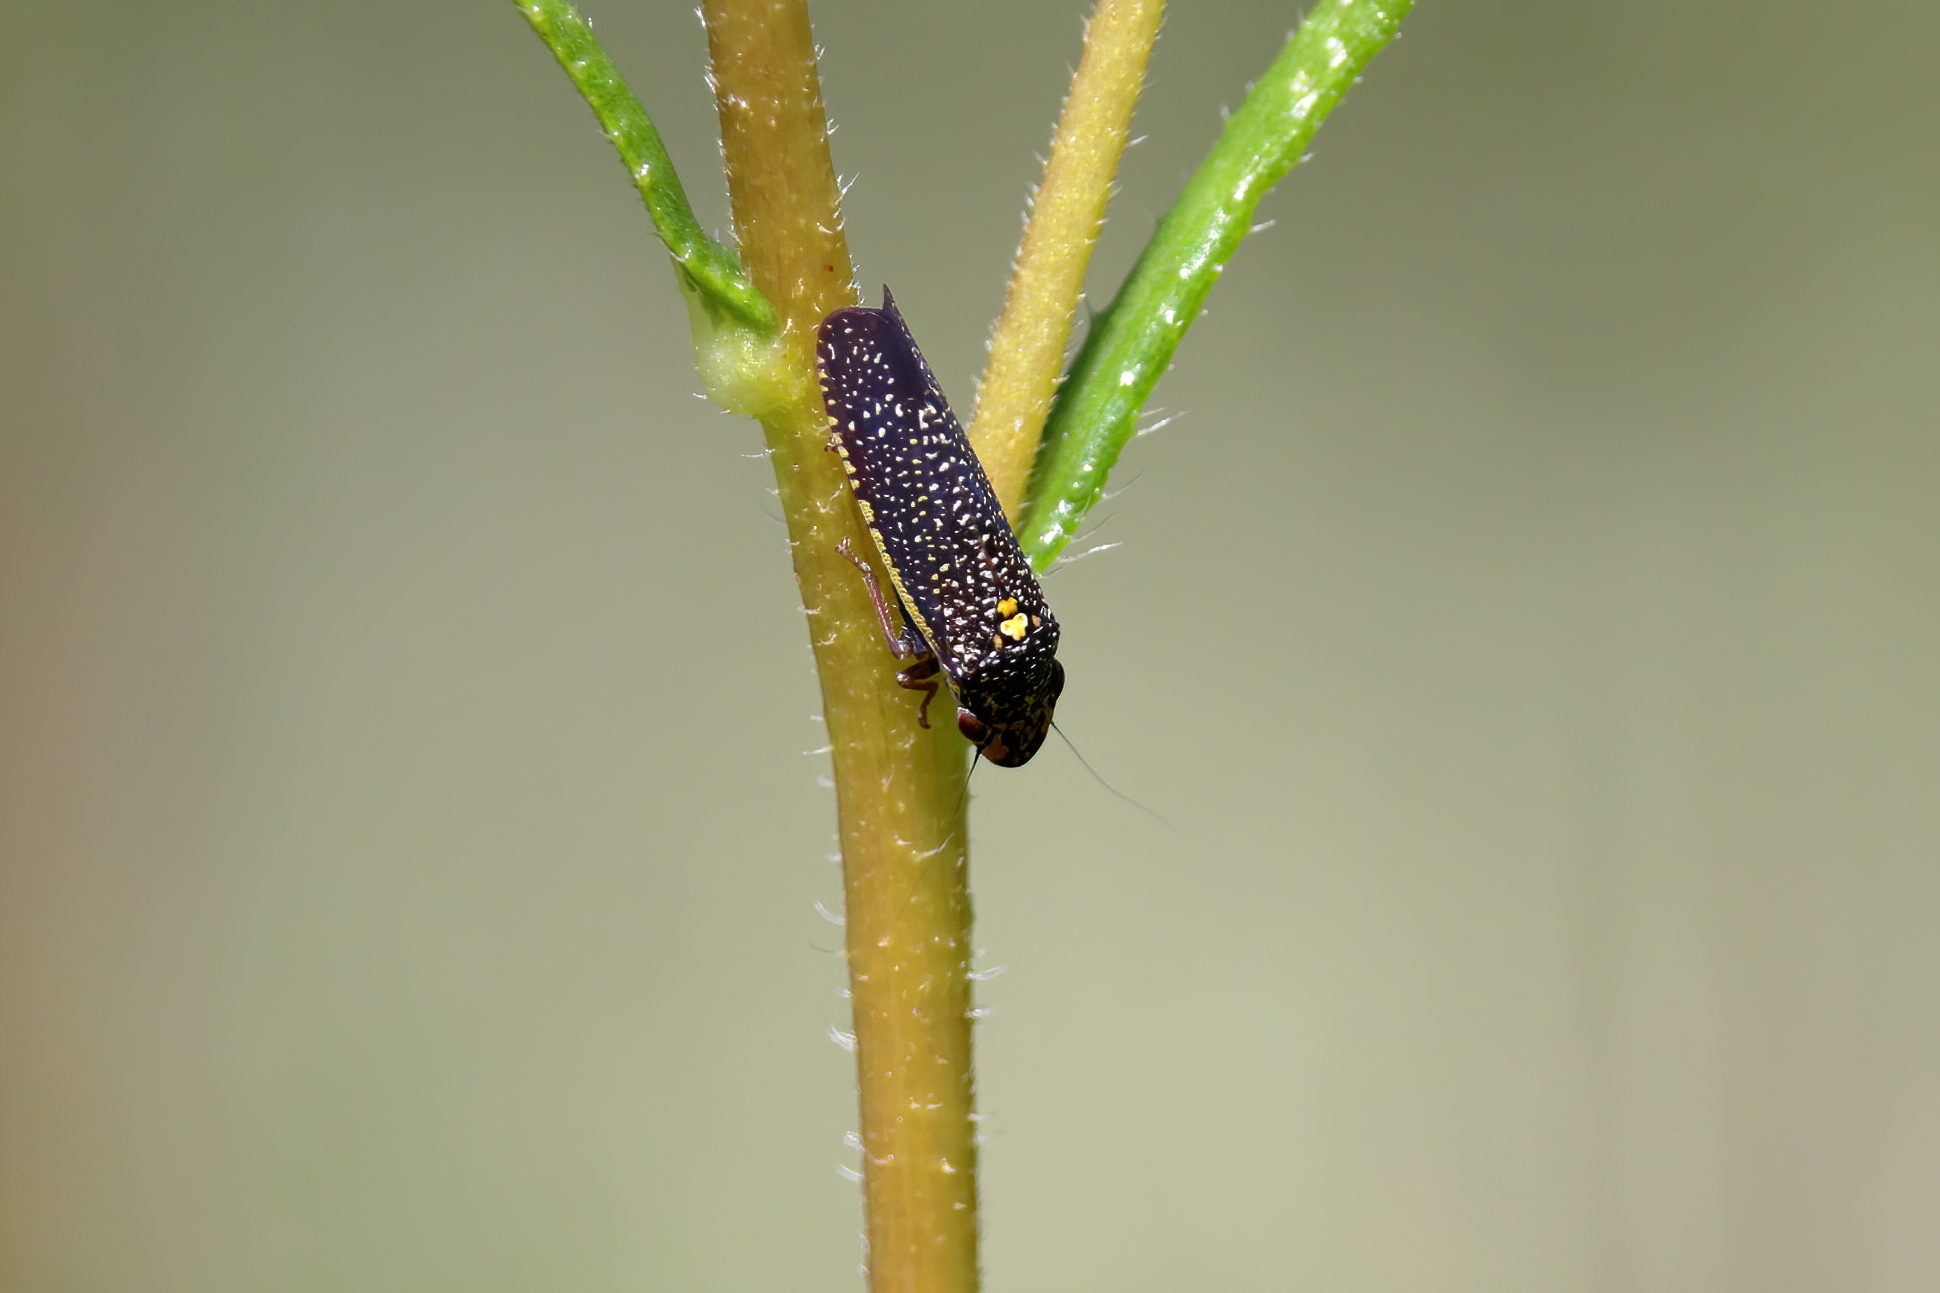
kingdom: Animalia
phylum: Arthropoda
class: Insecta
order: Hemiptera
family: Cicadellidae
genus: Paraulacizes
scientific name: Paraulacizes irrorata
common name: Speckled sharpshooter
